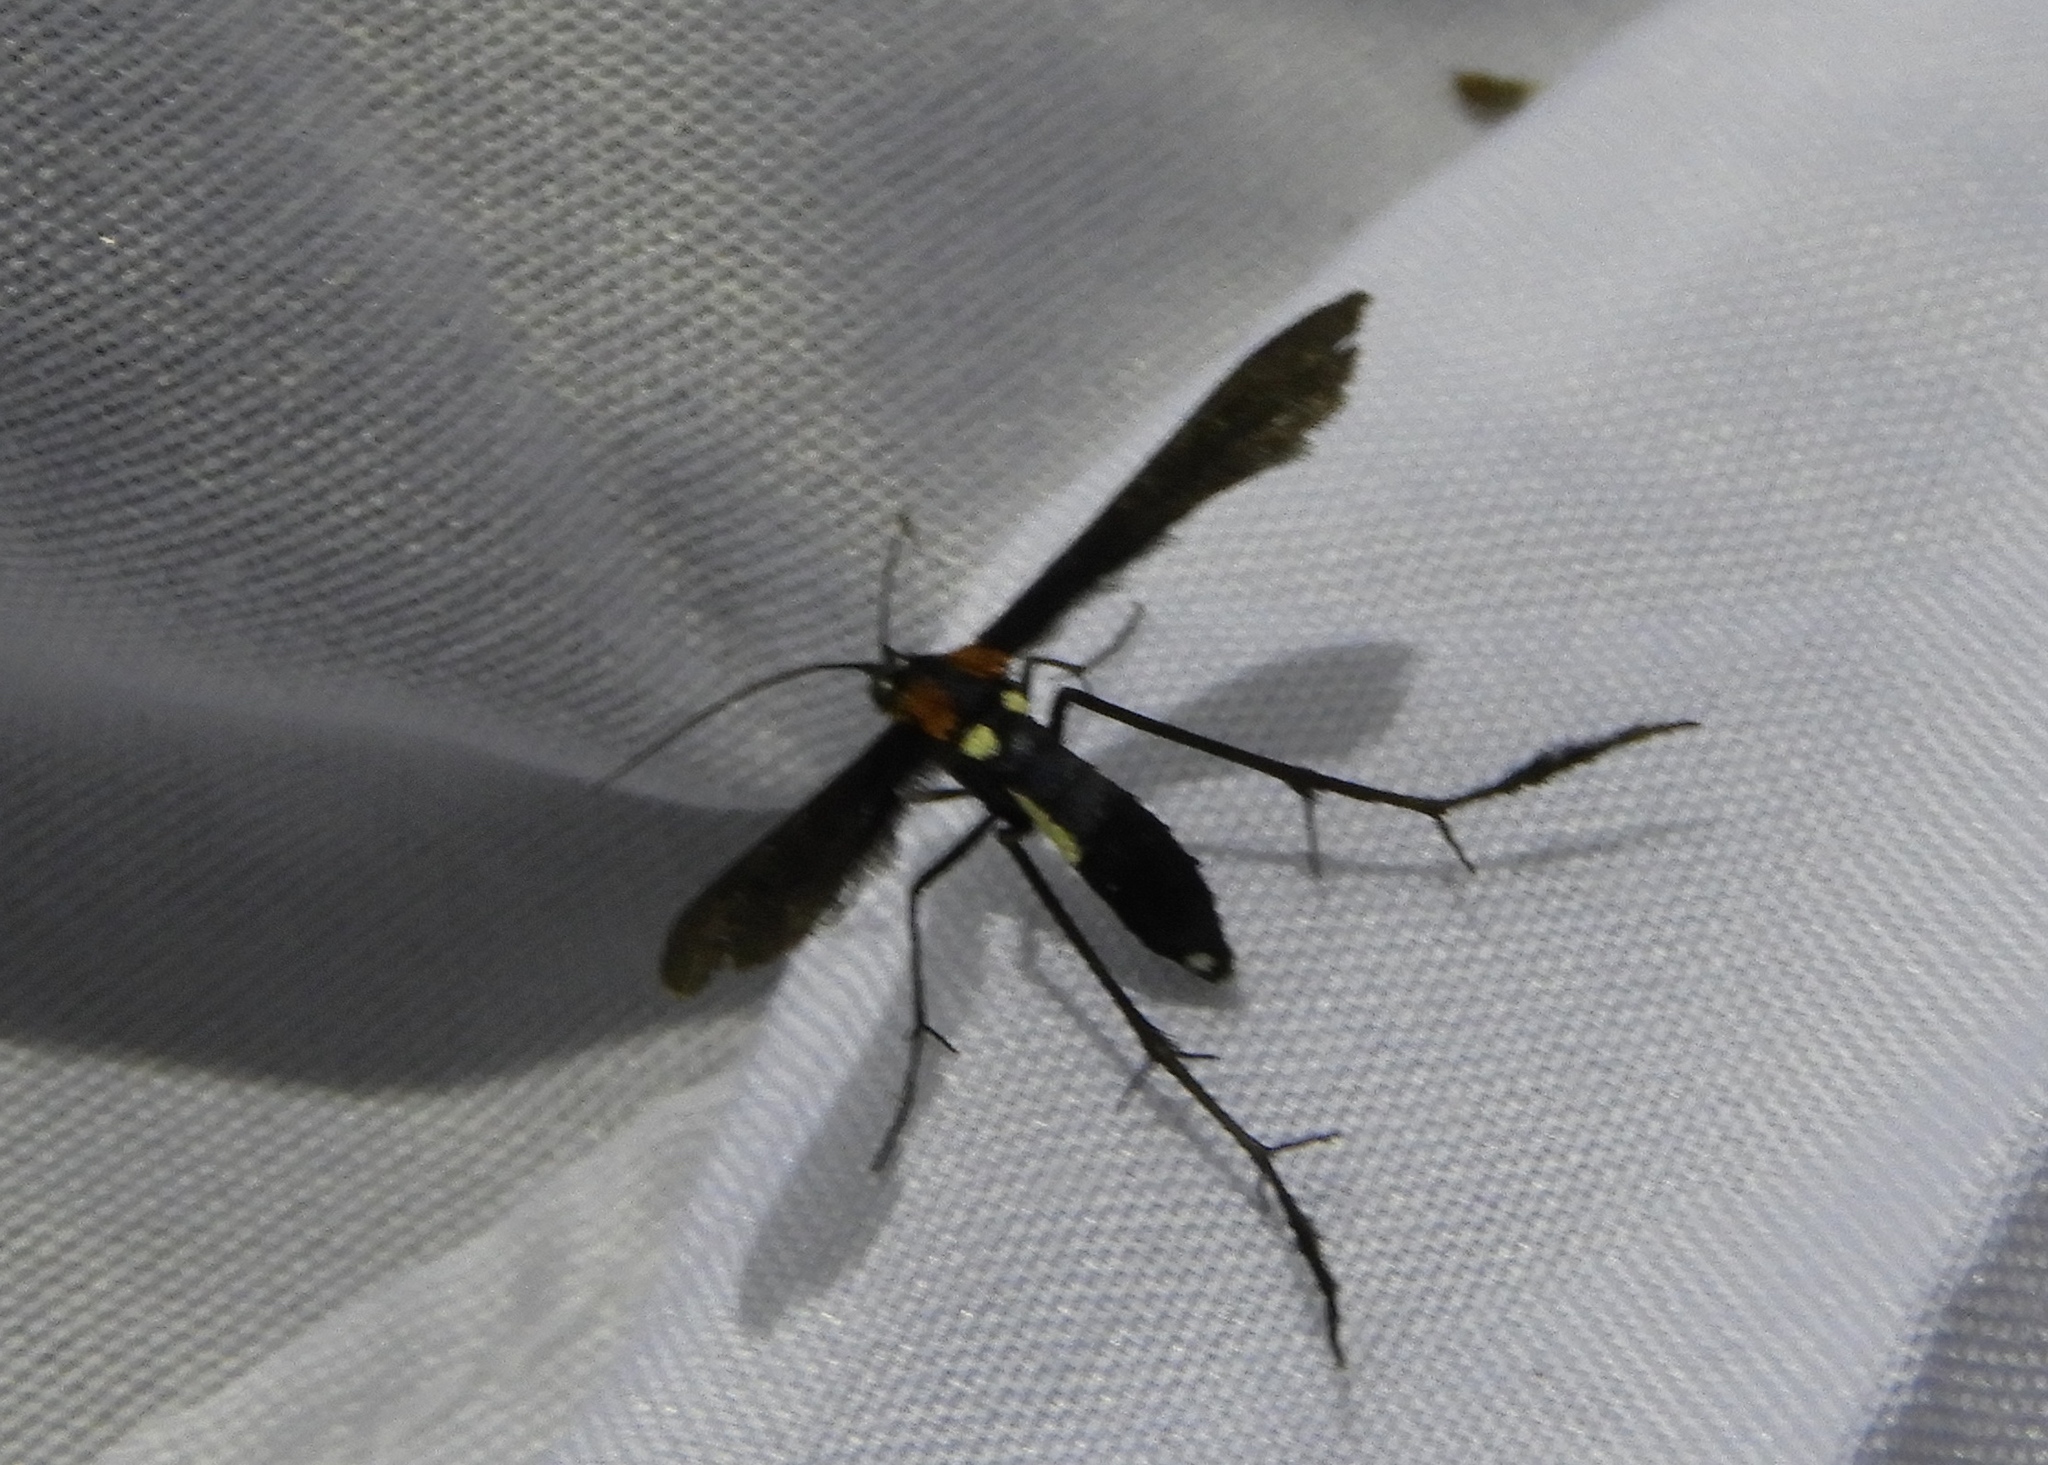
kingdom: Animalia
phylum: Arthropoda
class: Insecta
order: Lepidoptera
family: Pterophoridae
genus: Hellinsia
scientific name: Hellinsia chamelai
